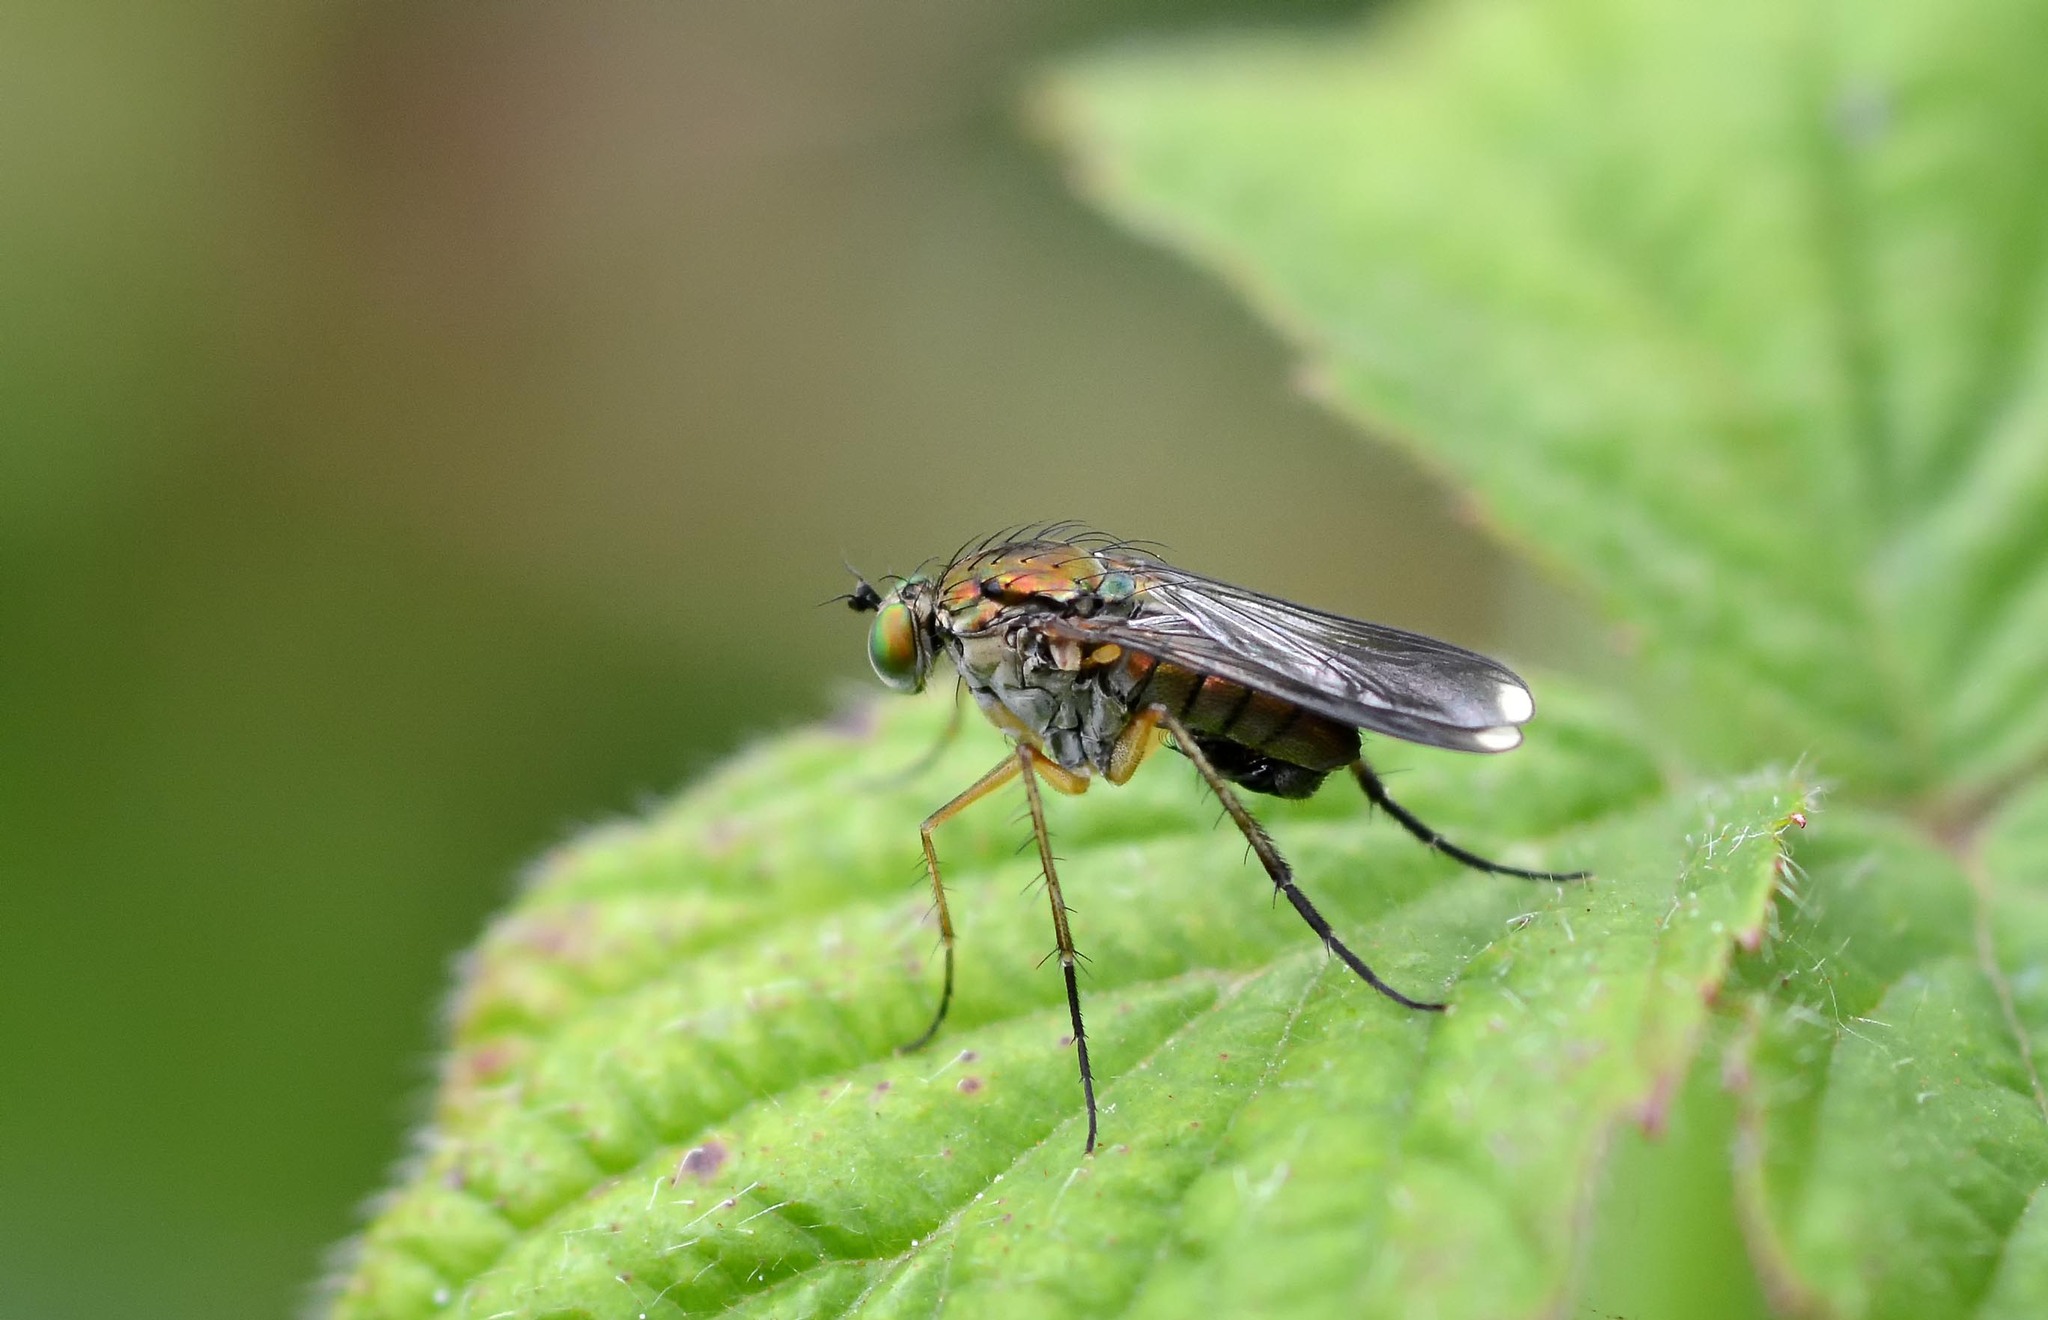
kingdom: Animalia
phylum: Arthropoda
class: Insecta
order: Diptera
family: Dolichopodidae
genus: Poecilobothrus
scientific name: Poecilobothrus nobilitatus
